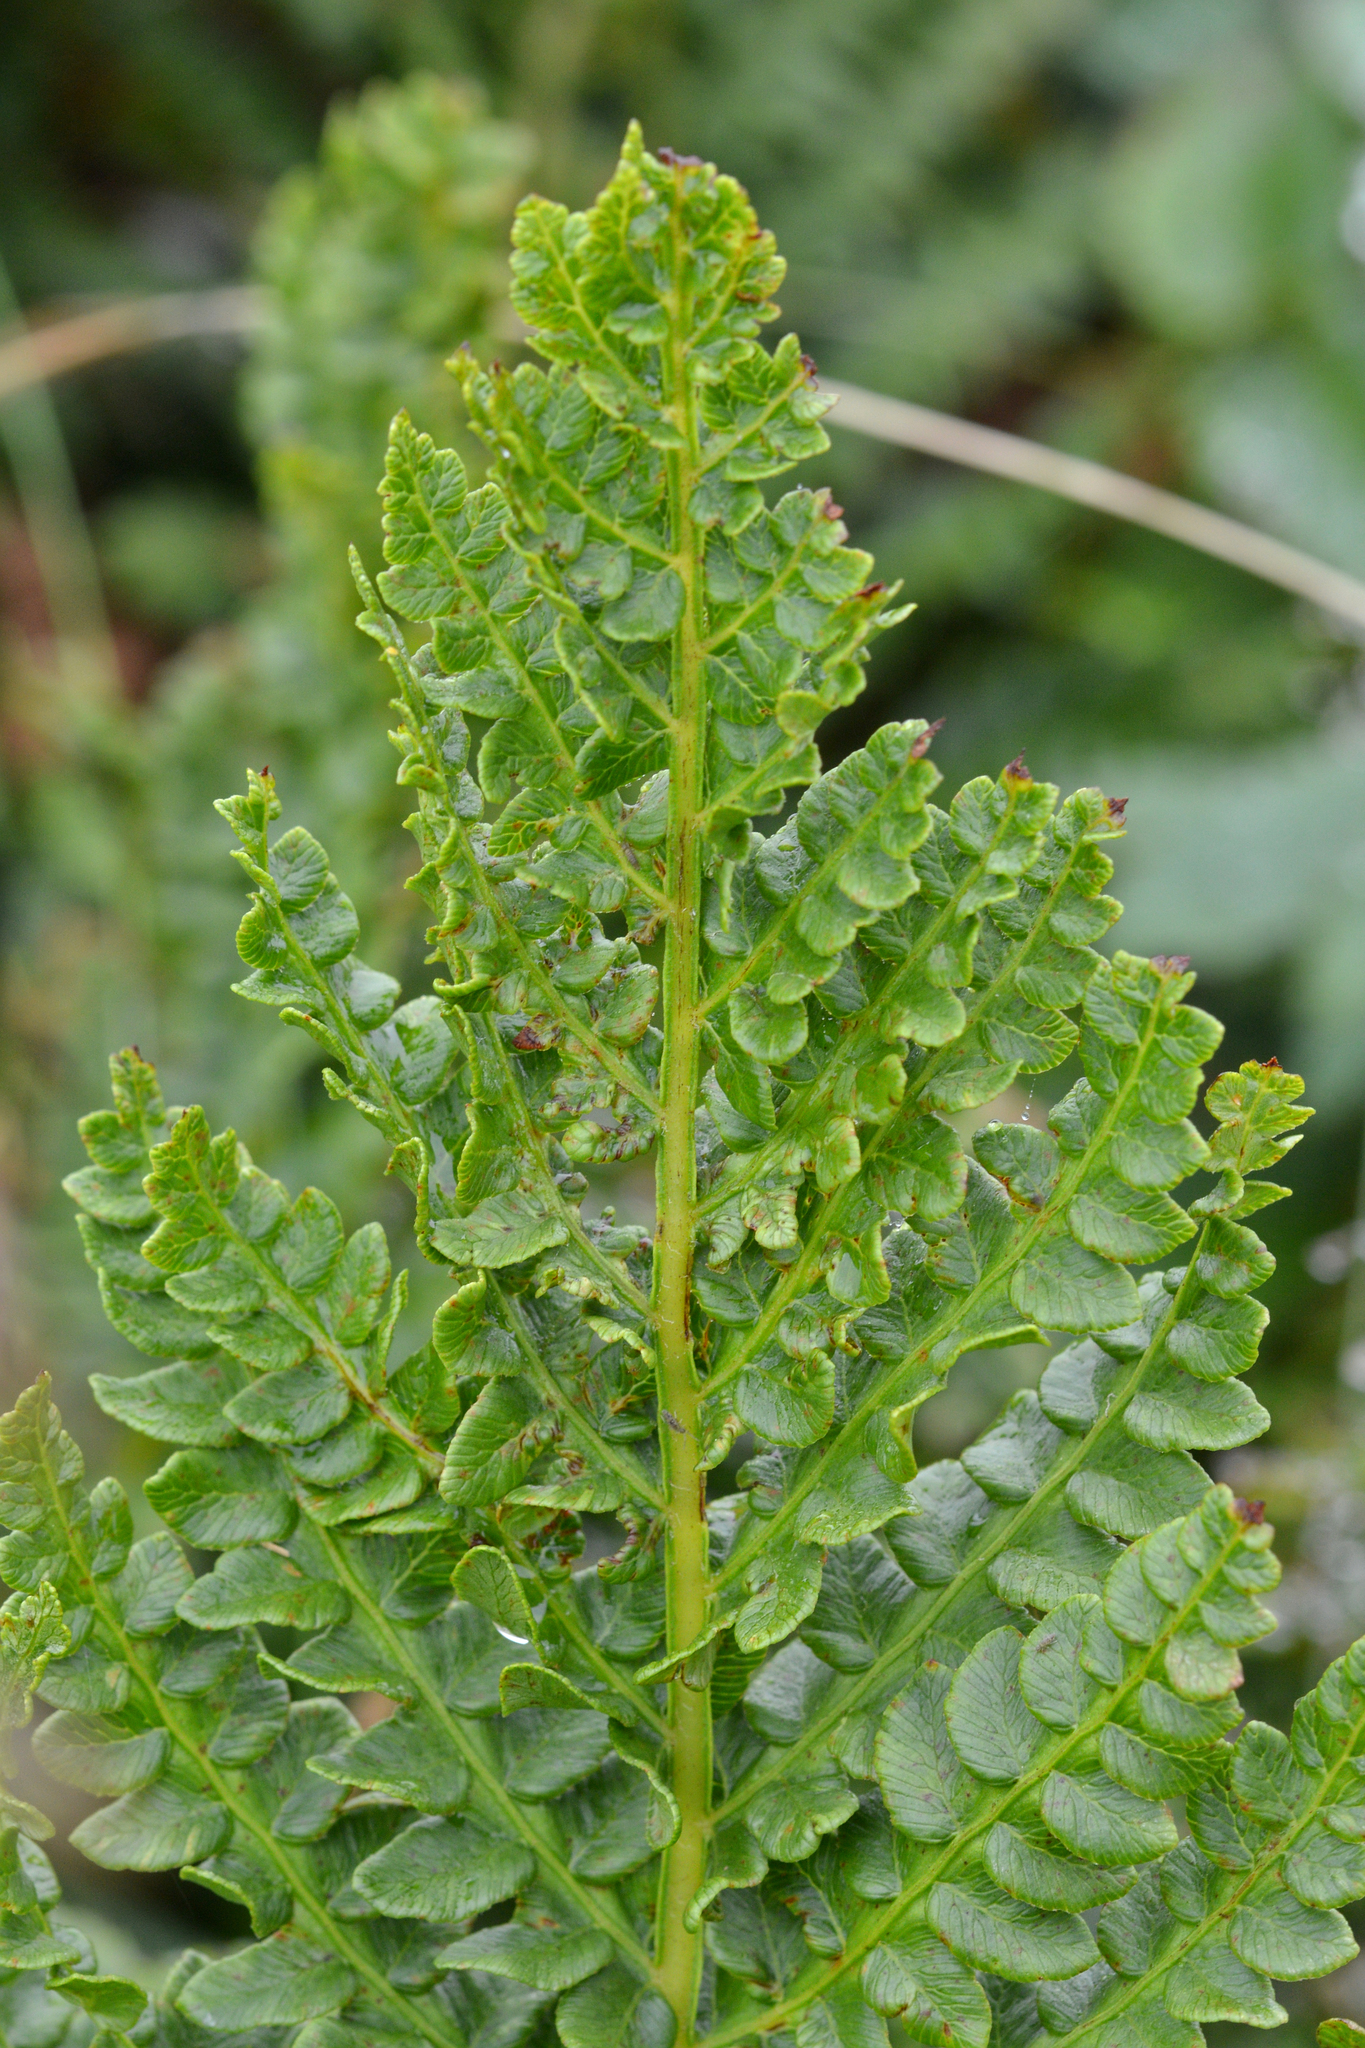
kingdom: Plantae
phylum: Tracheophyta
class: Polypodiopsida
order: Osmundales
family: Osmundaceae
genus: Osmundastrum
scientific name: Osmundastrum cinnamomeum
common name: Cinnamon fern
